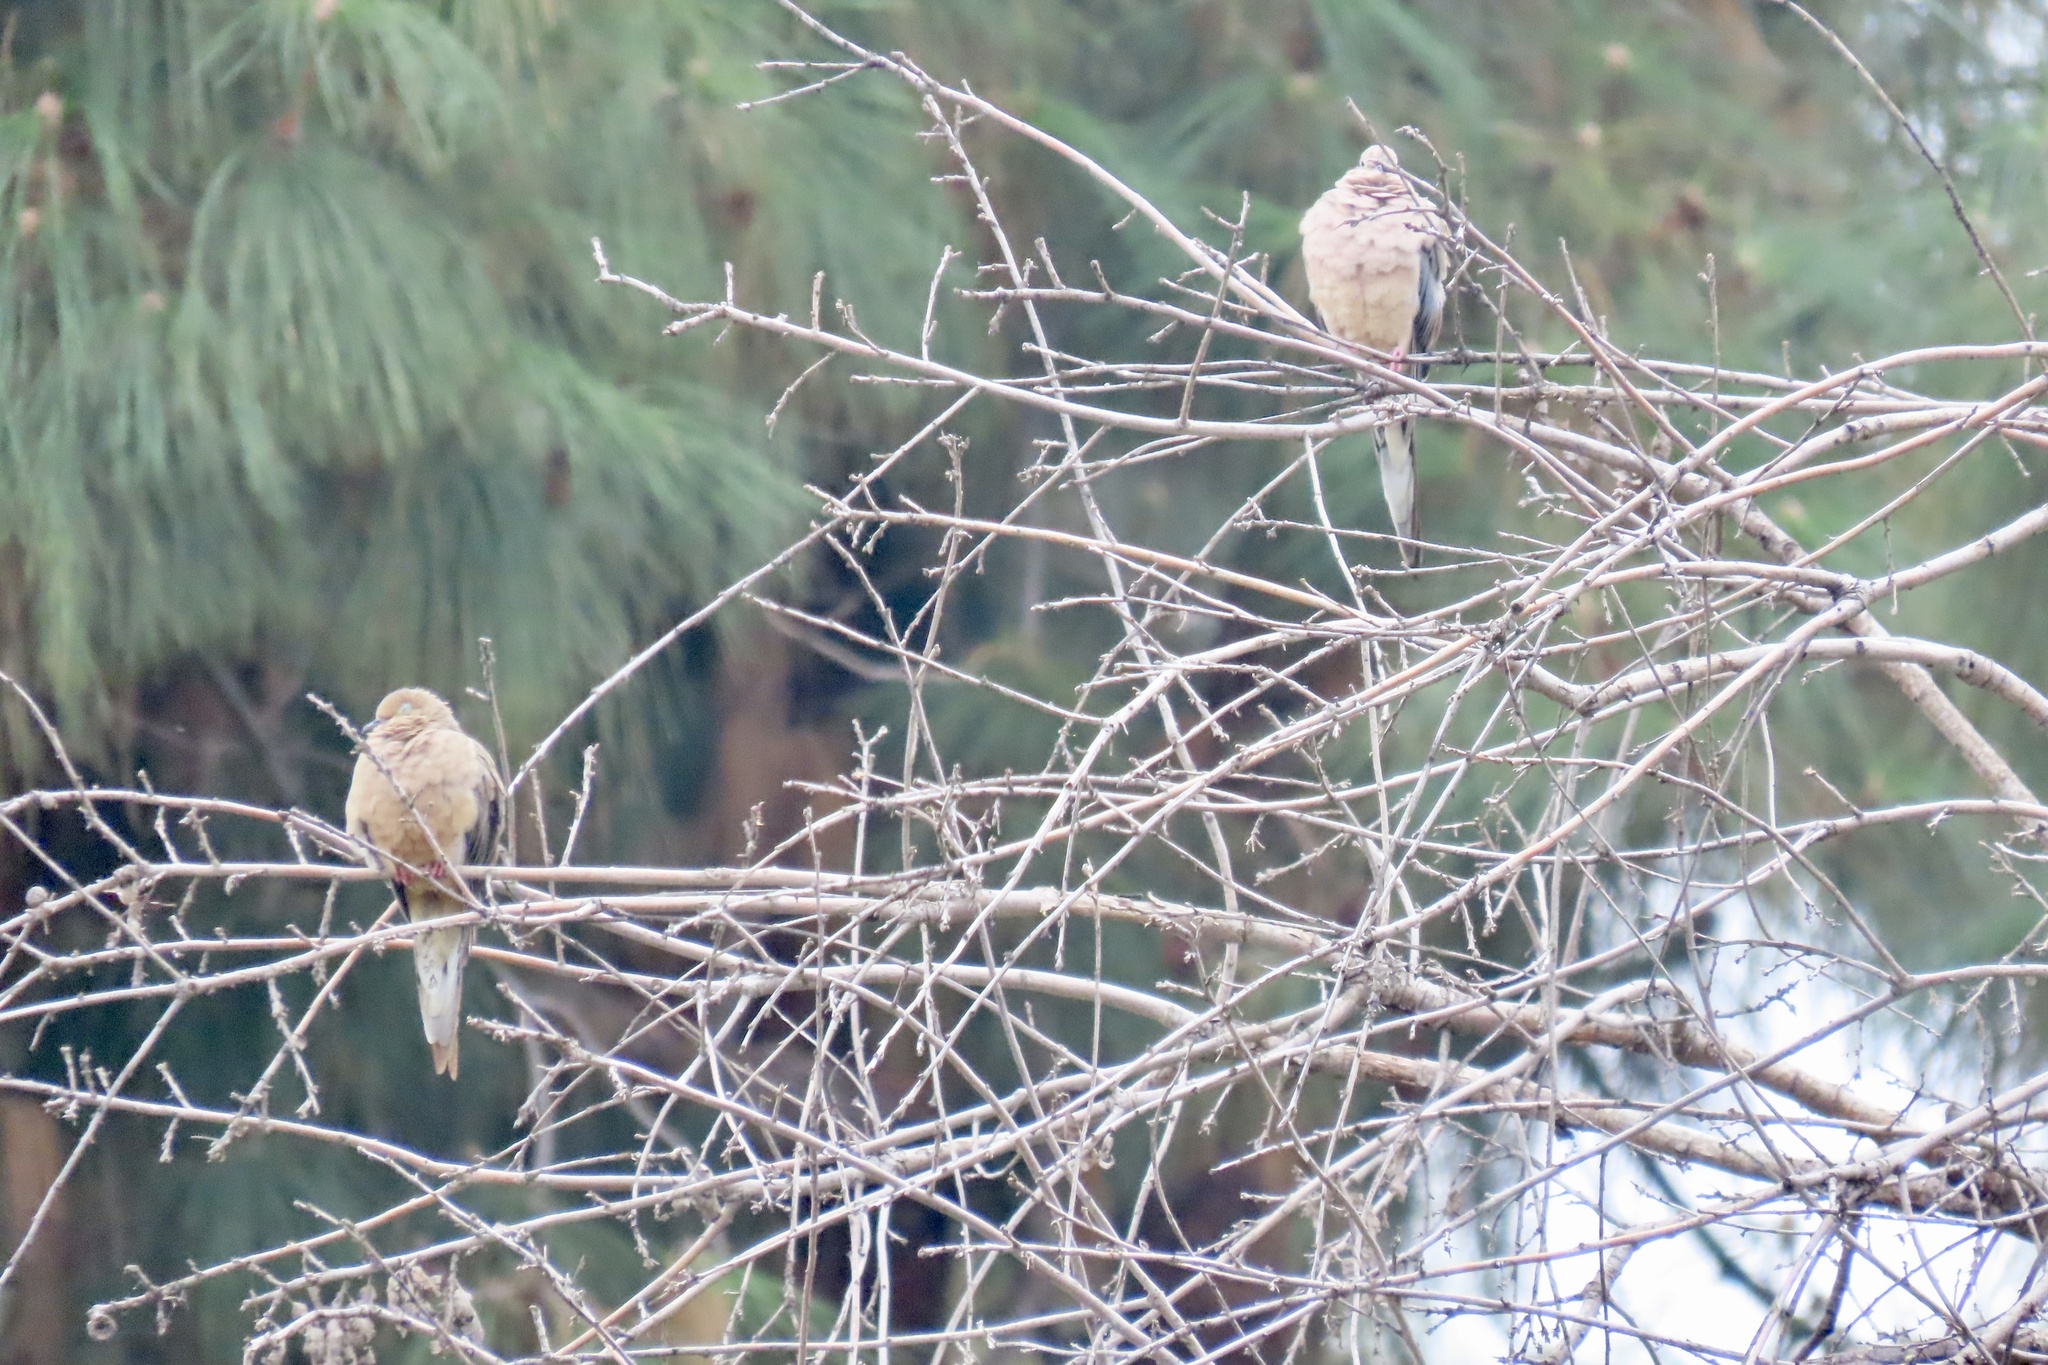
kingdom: Animalia
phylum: Chordata
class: Aves
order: Columbiformes
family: Columbidae
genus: Zenaida
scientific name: Zenaida macroura
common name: Mourning dove
